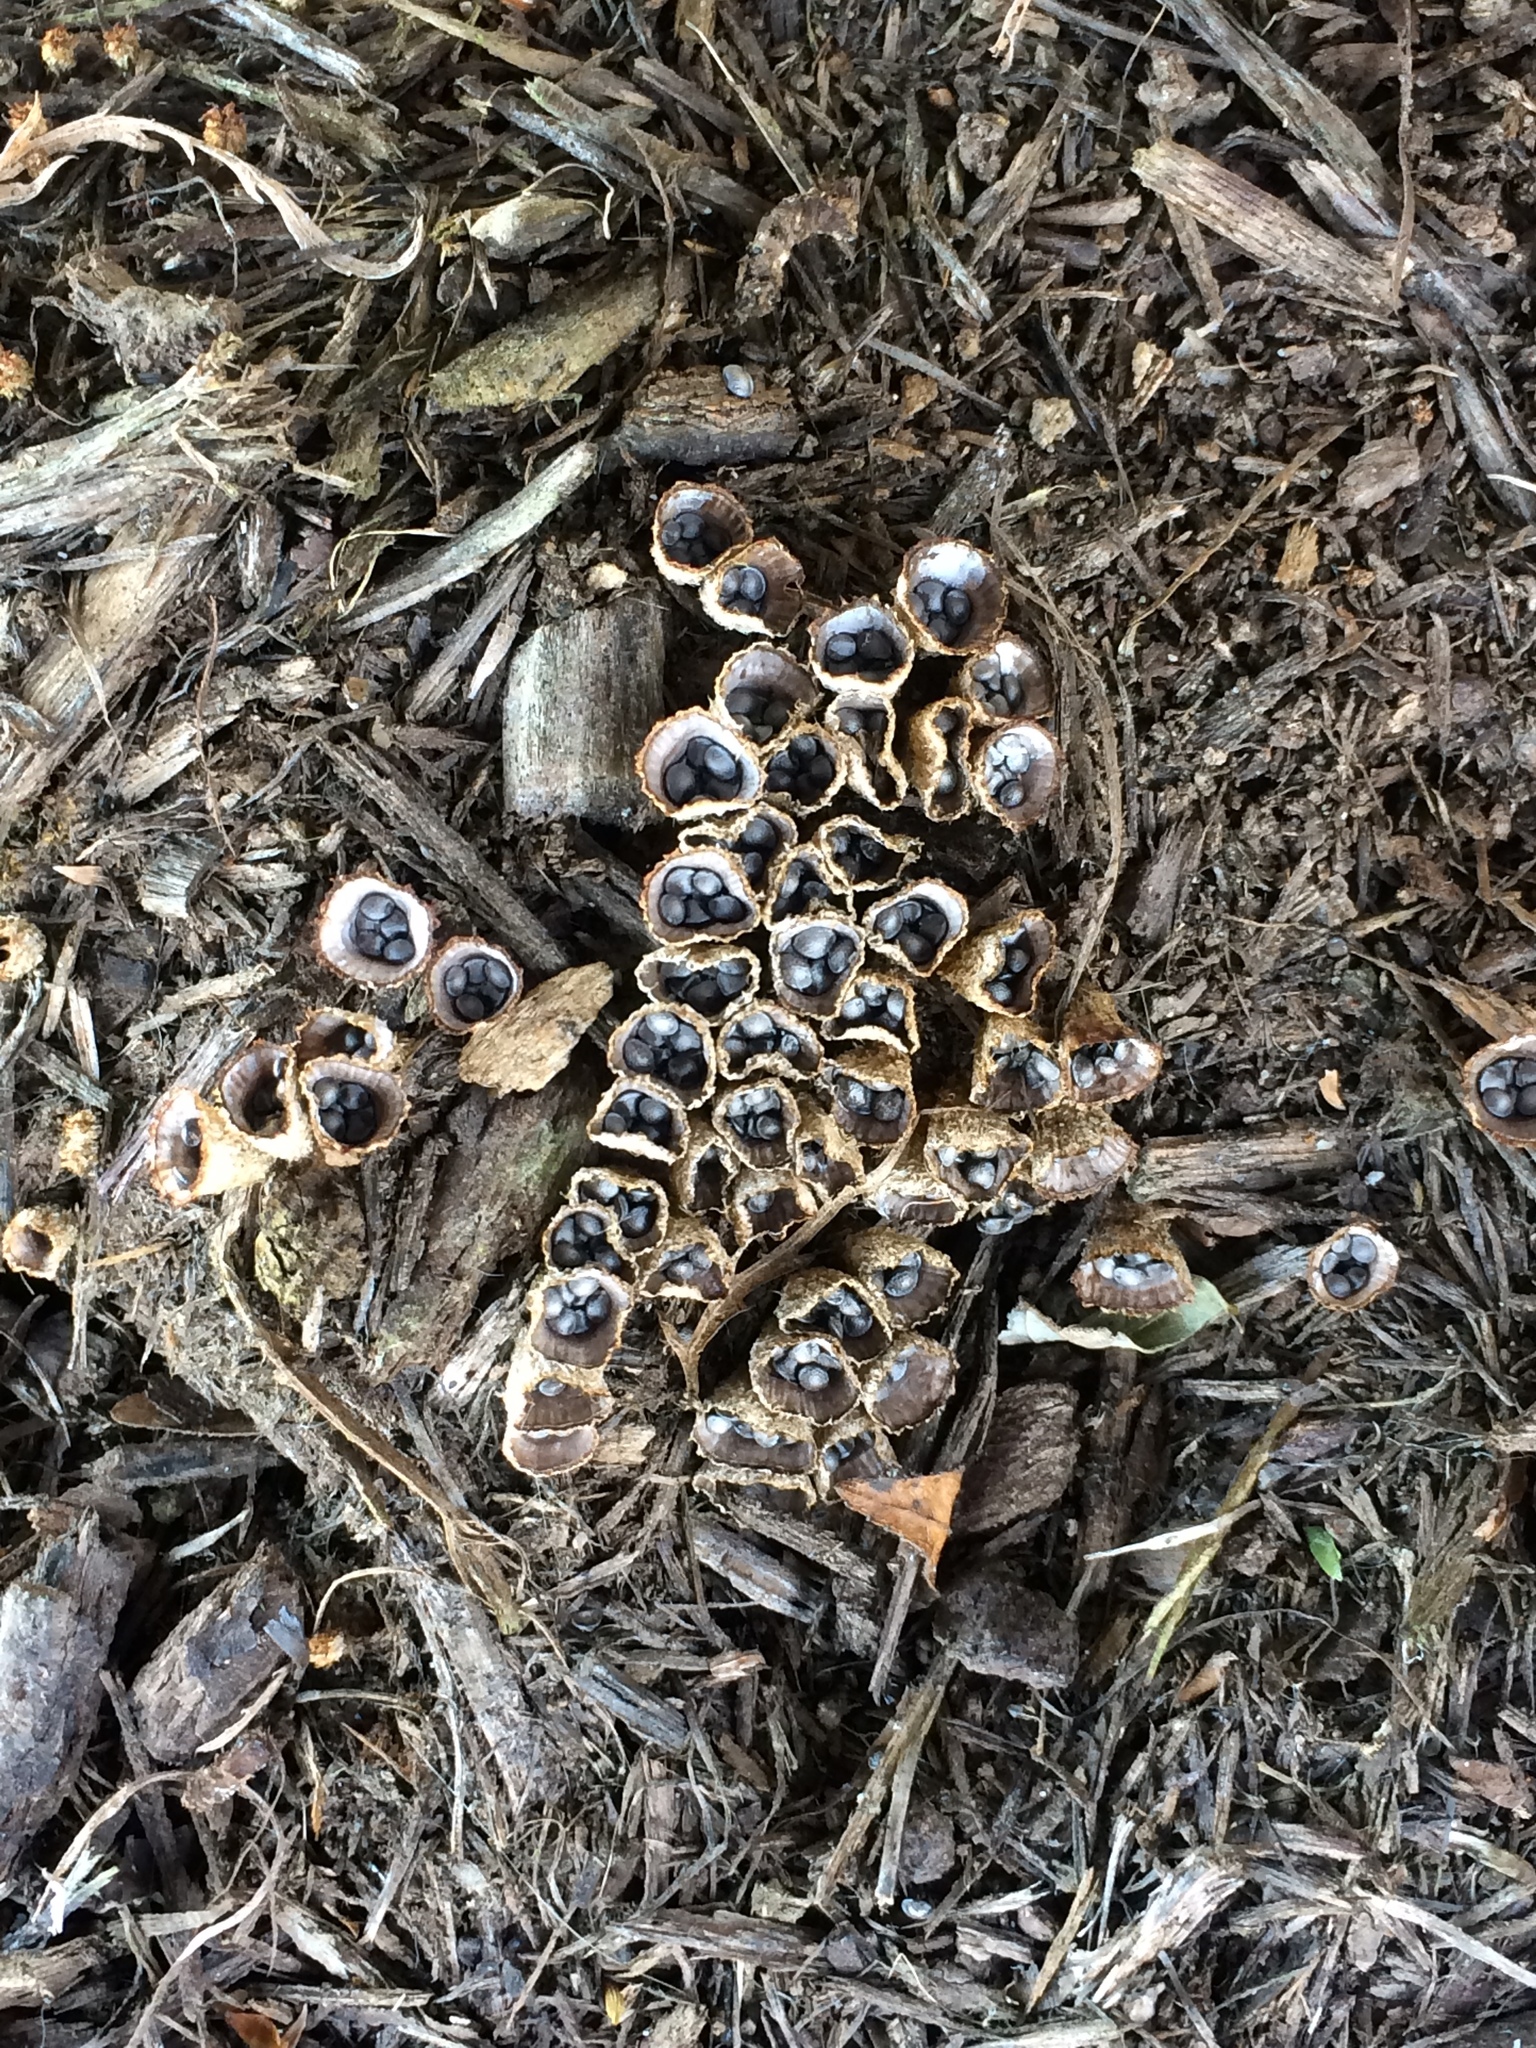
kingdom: Fungi
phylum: Basidiomycota
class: Agaricomycetes
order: Agaricales
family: Agaricaceae
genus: Cyathus
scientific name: Cyathus striatus
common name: Fluted bird's nest
